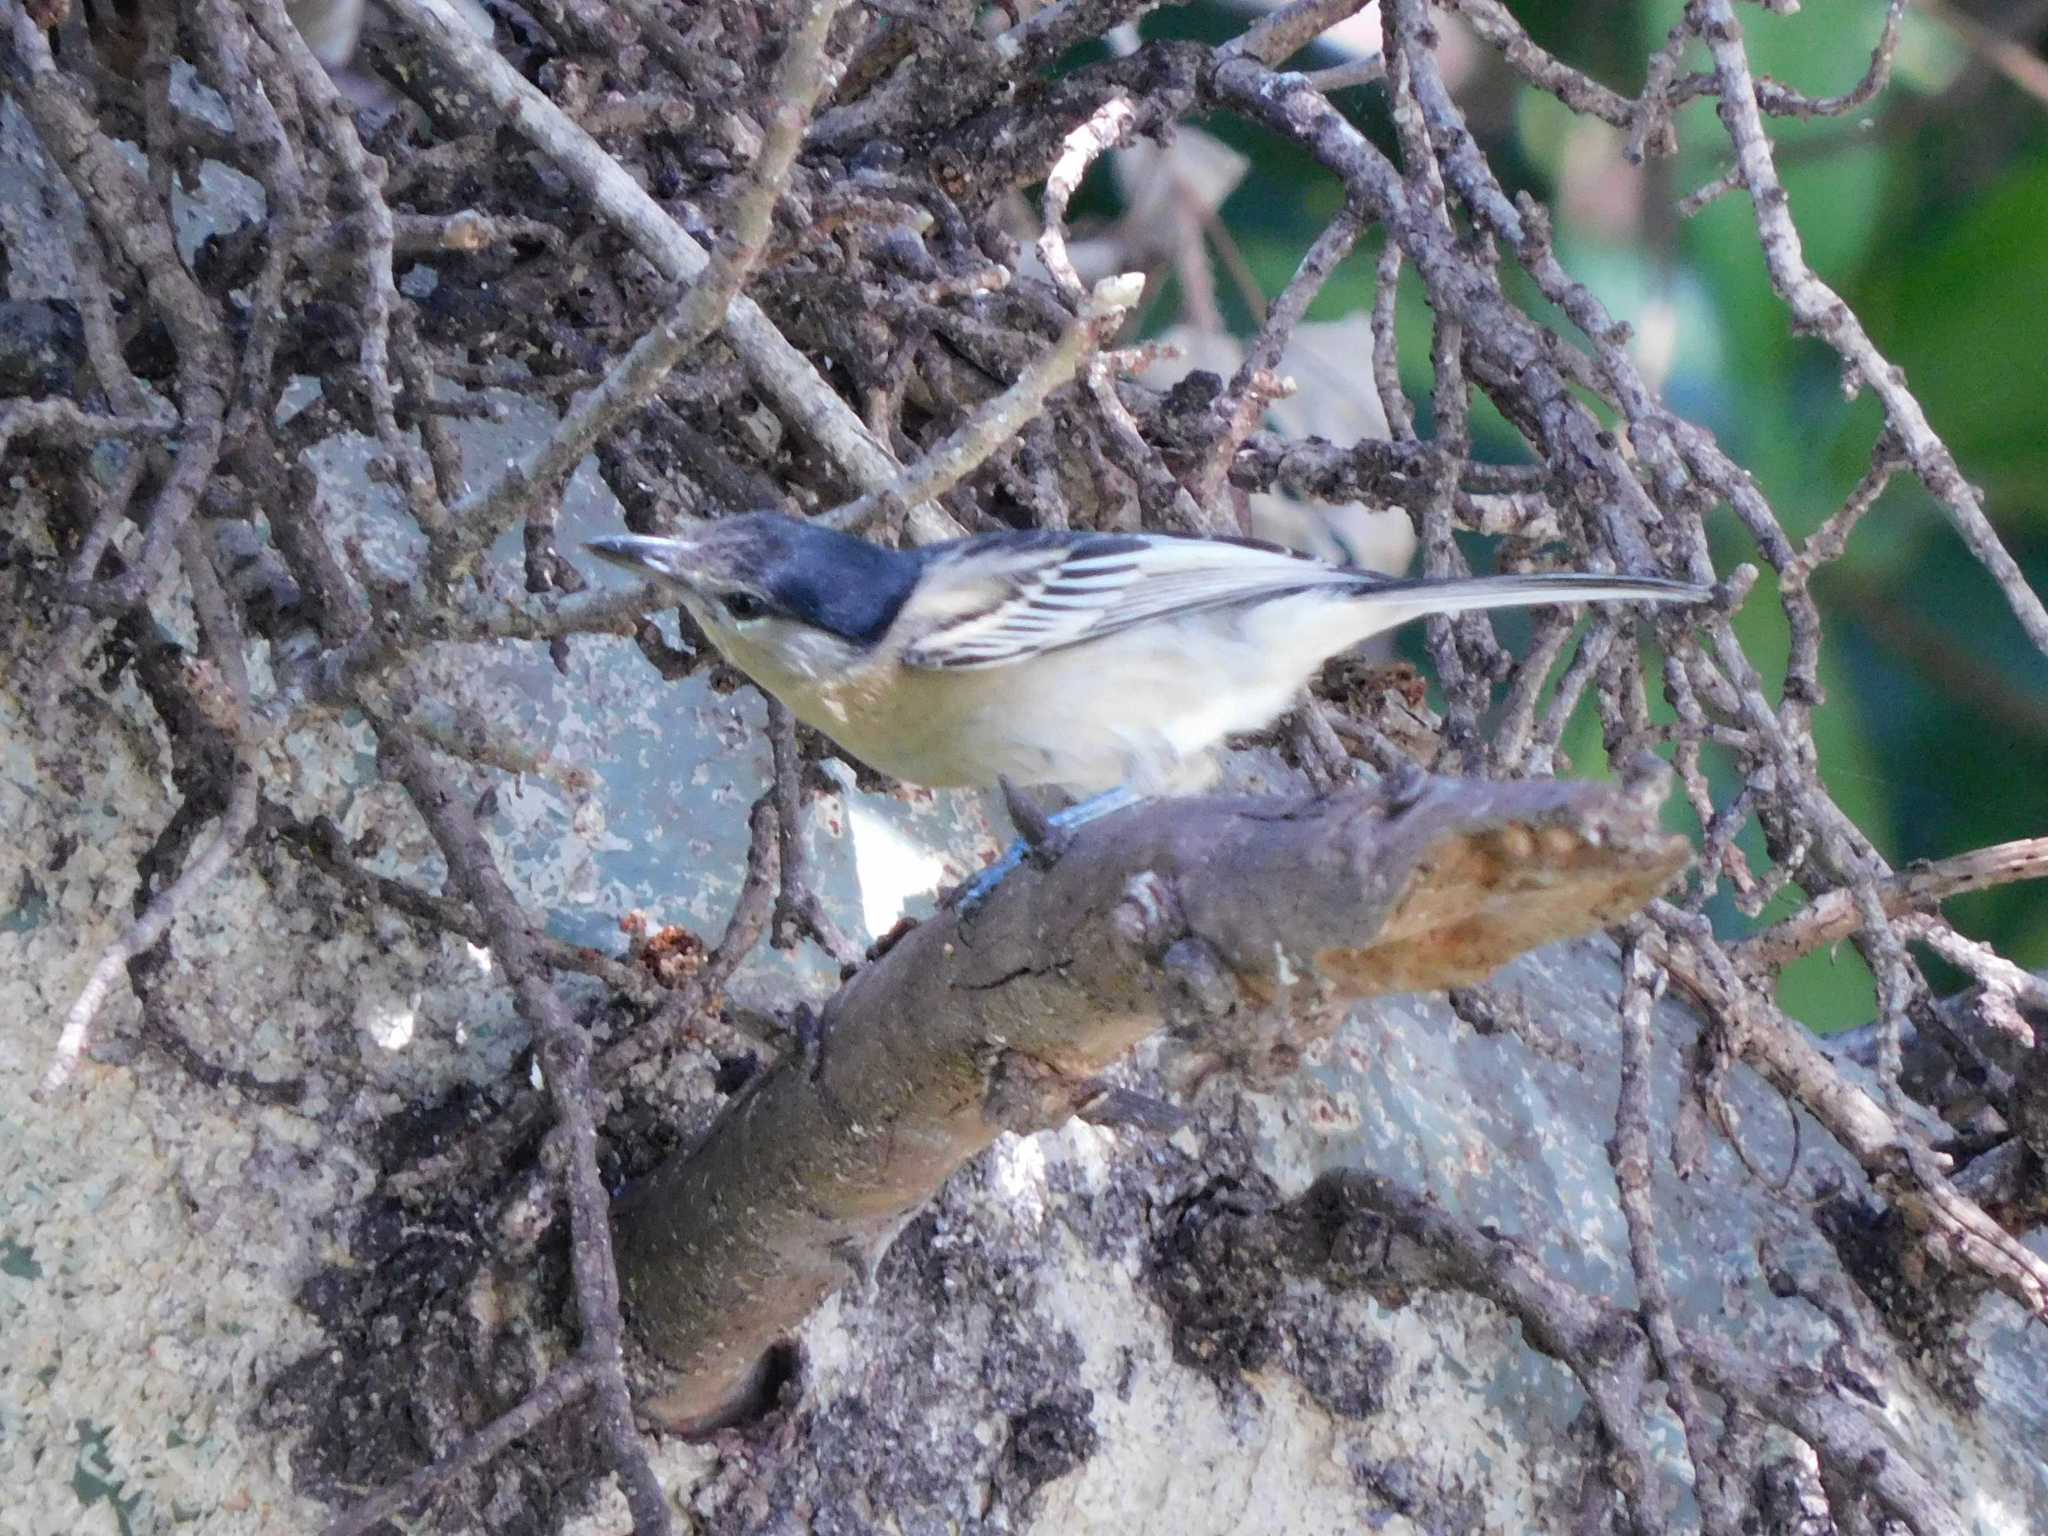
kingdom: Animalia
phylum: Chordata
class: Aves
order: Passeriformes
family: Malaconotidae
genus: Dryoscopus
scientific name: Dryoscopus cubla
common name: Black-backed puffback
